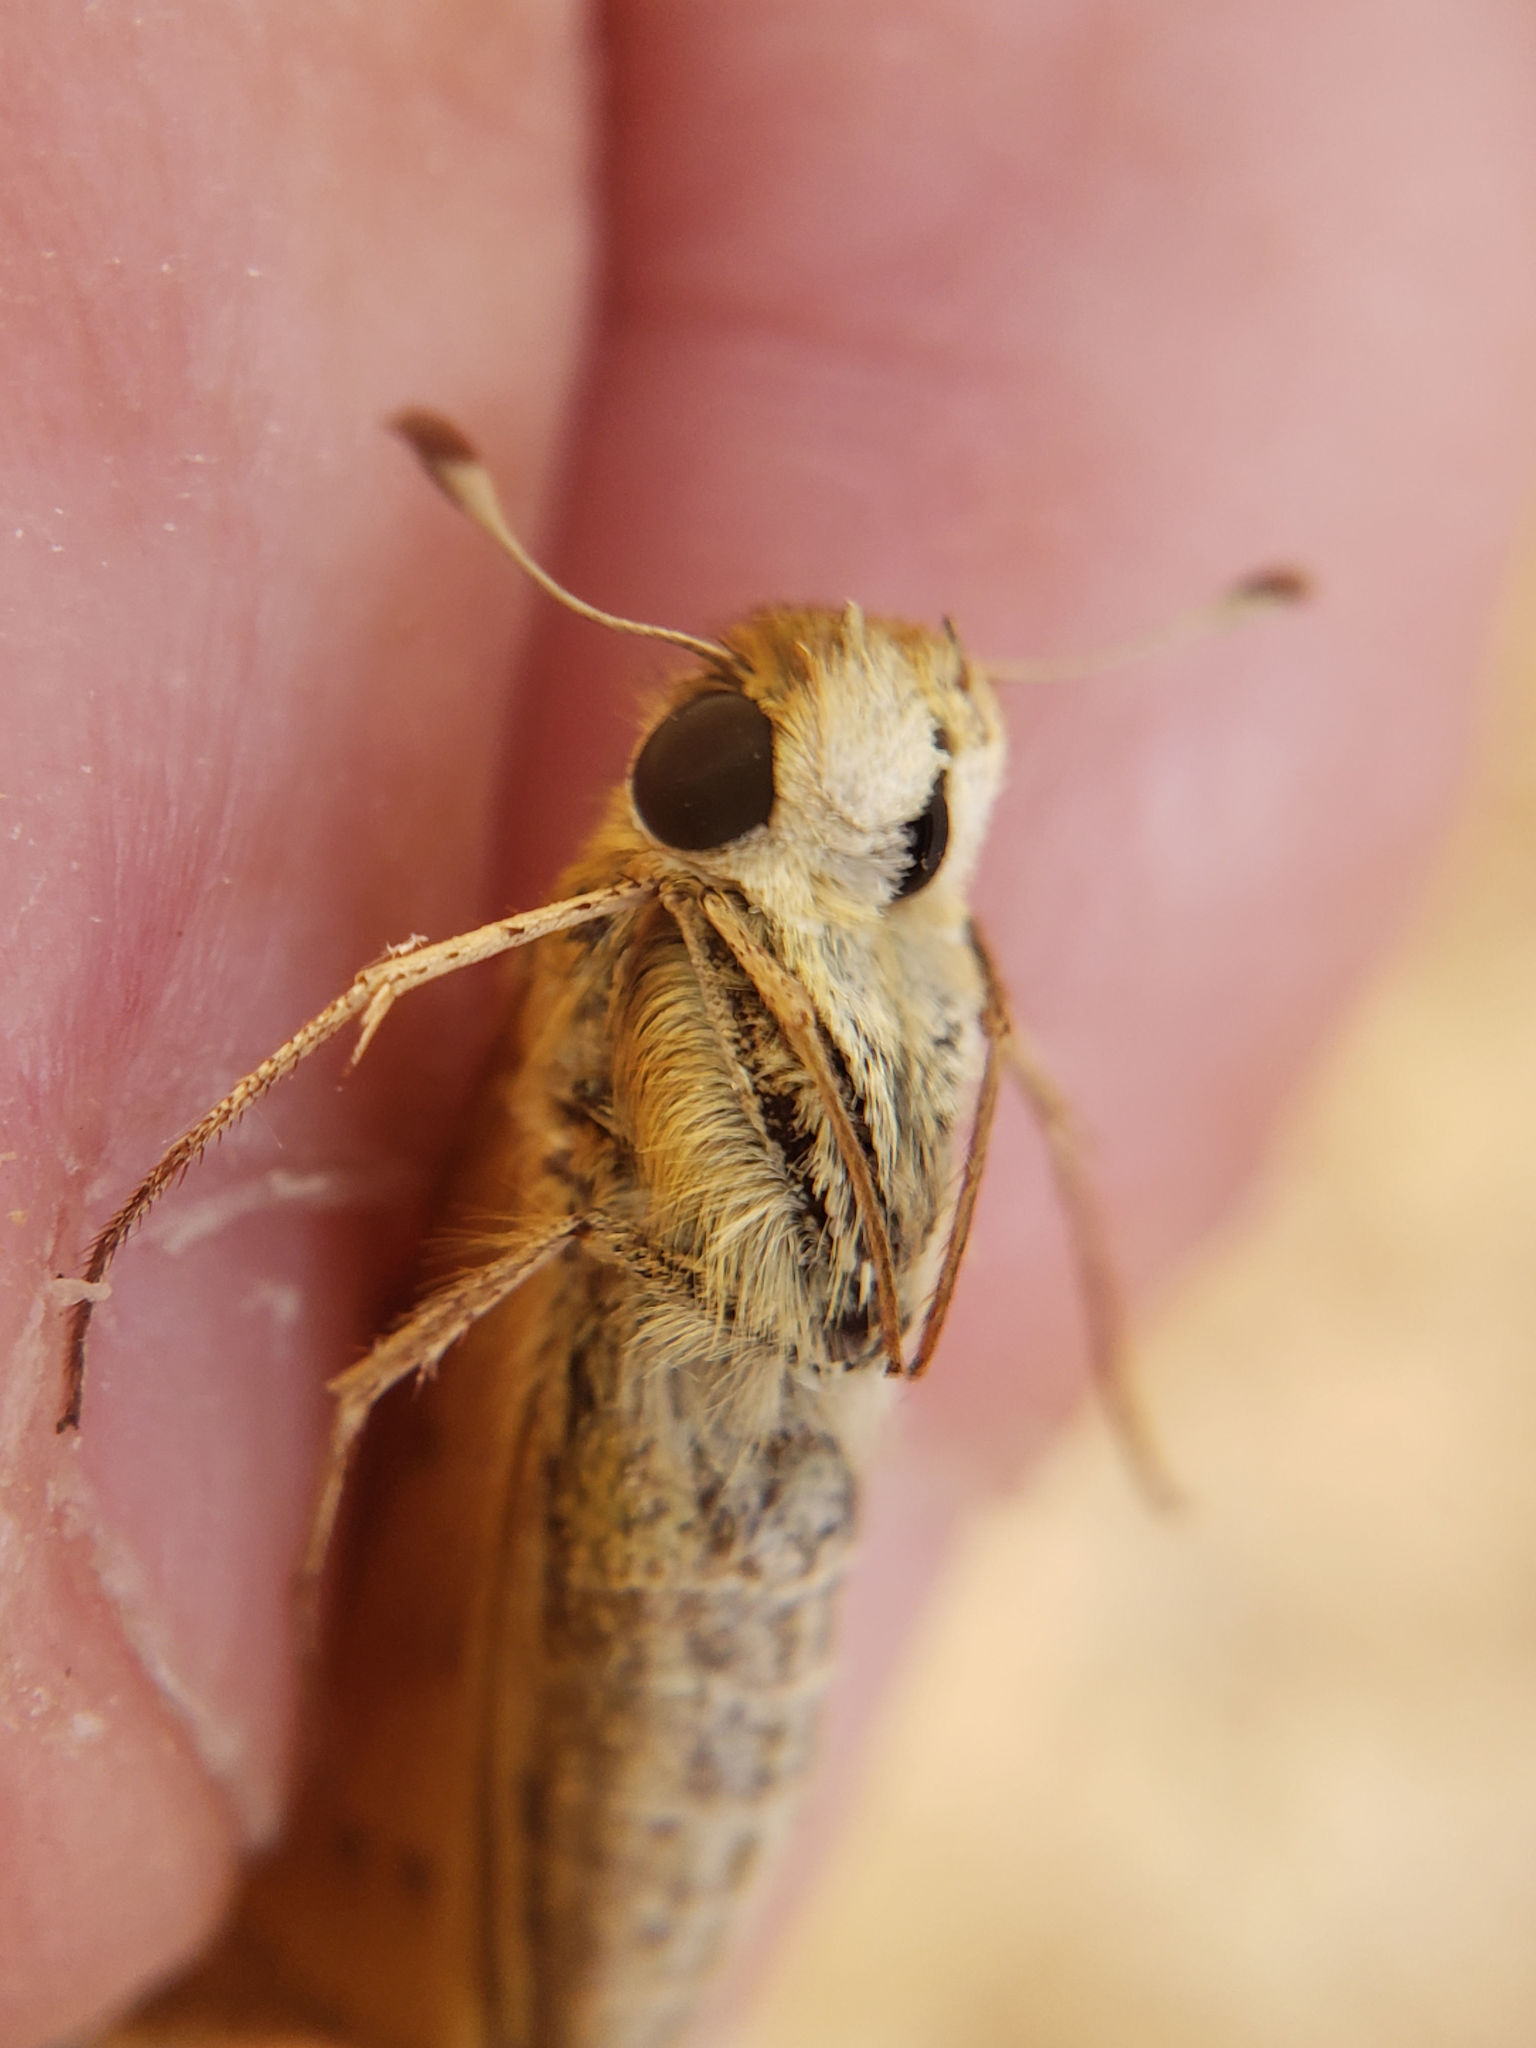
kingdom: Animalia
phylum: Arthropoda
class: Insecta
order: Lepidoptera
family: Hesperiidae
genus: Hylephila
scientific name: Hylephila phyleus
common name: Fiery skipper
